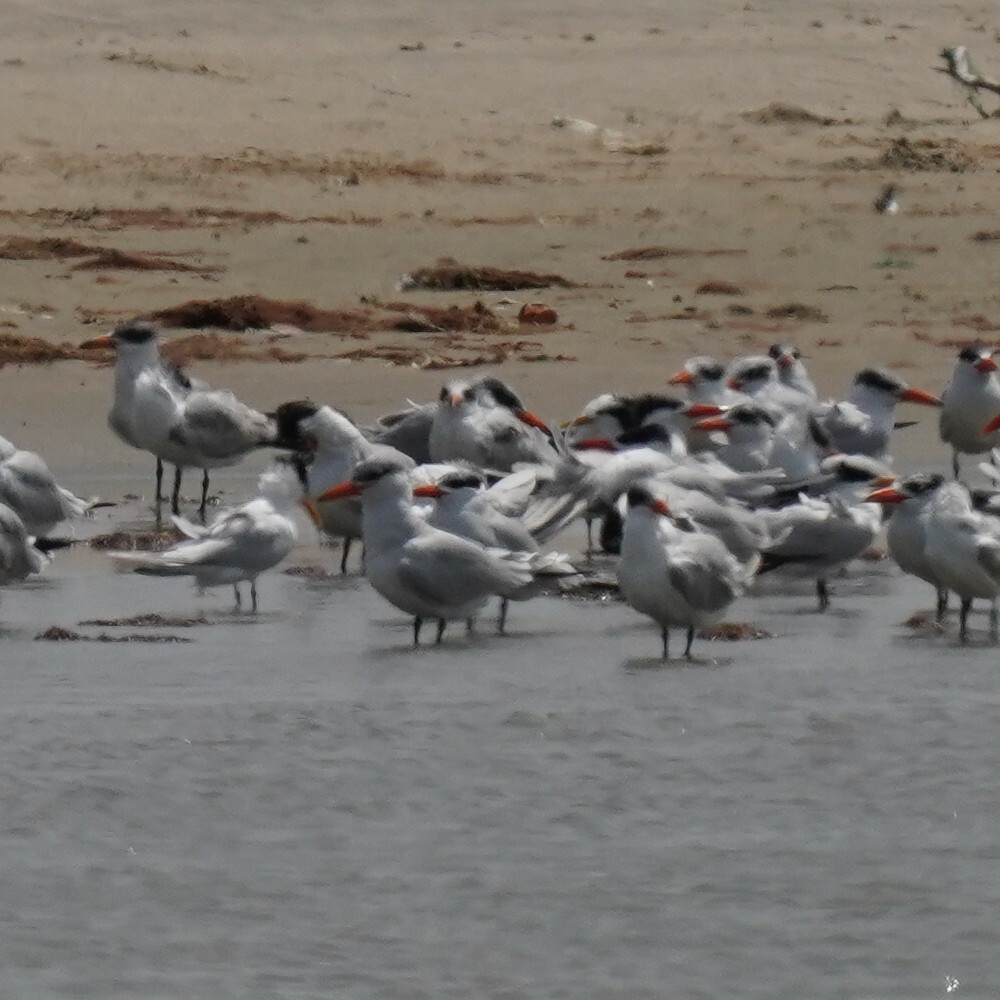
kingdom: Animalia
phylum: Chordata
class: Aves
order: Charadriiformes
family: Laridae
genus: Hydroprogne
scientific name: Hydroprogne caspia
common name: Caspian tern
